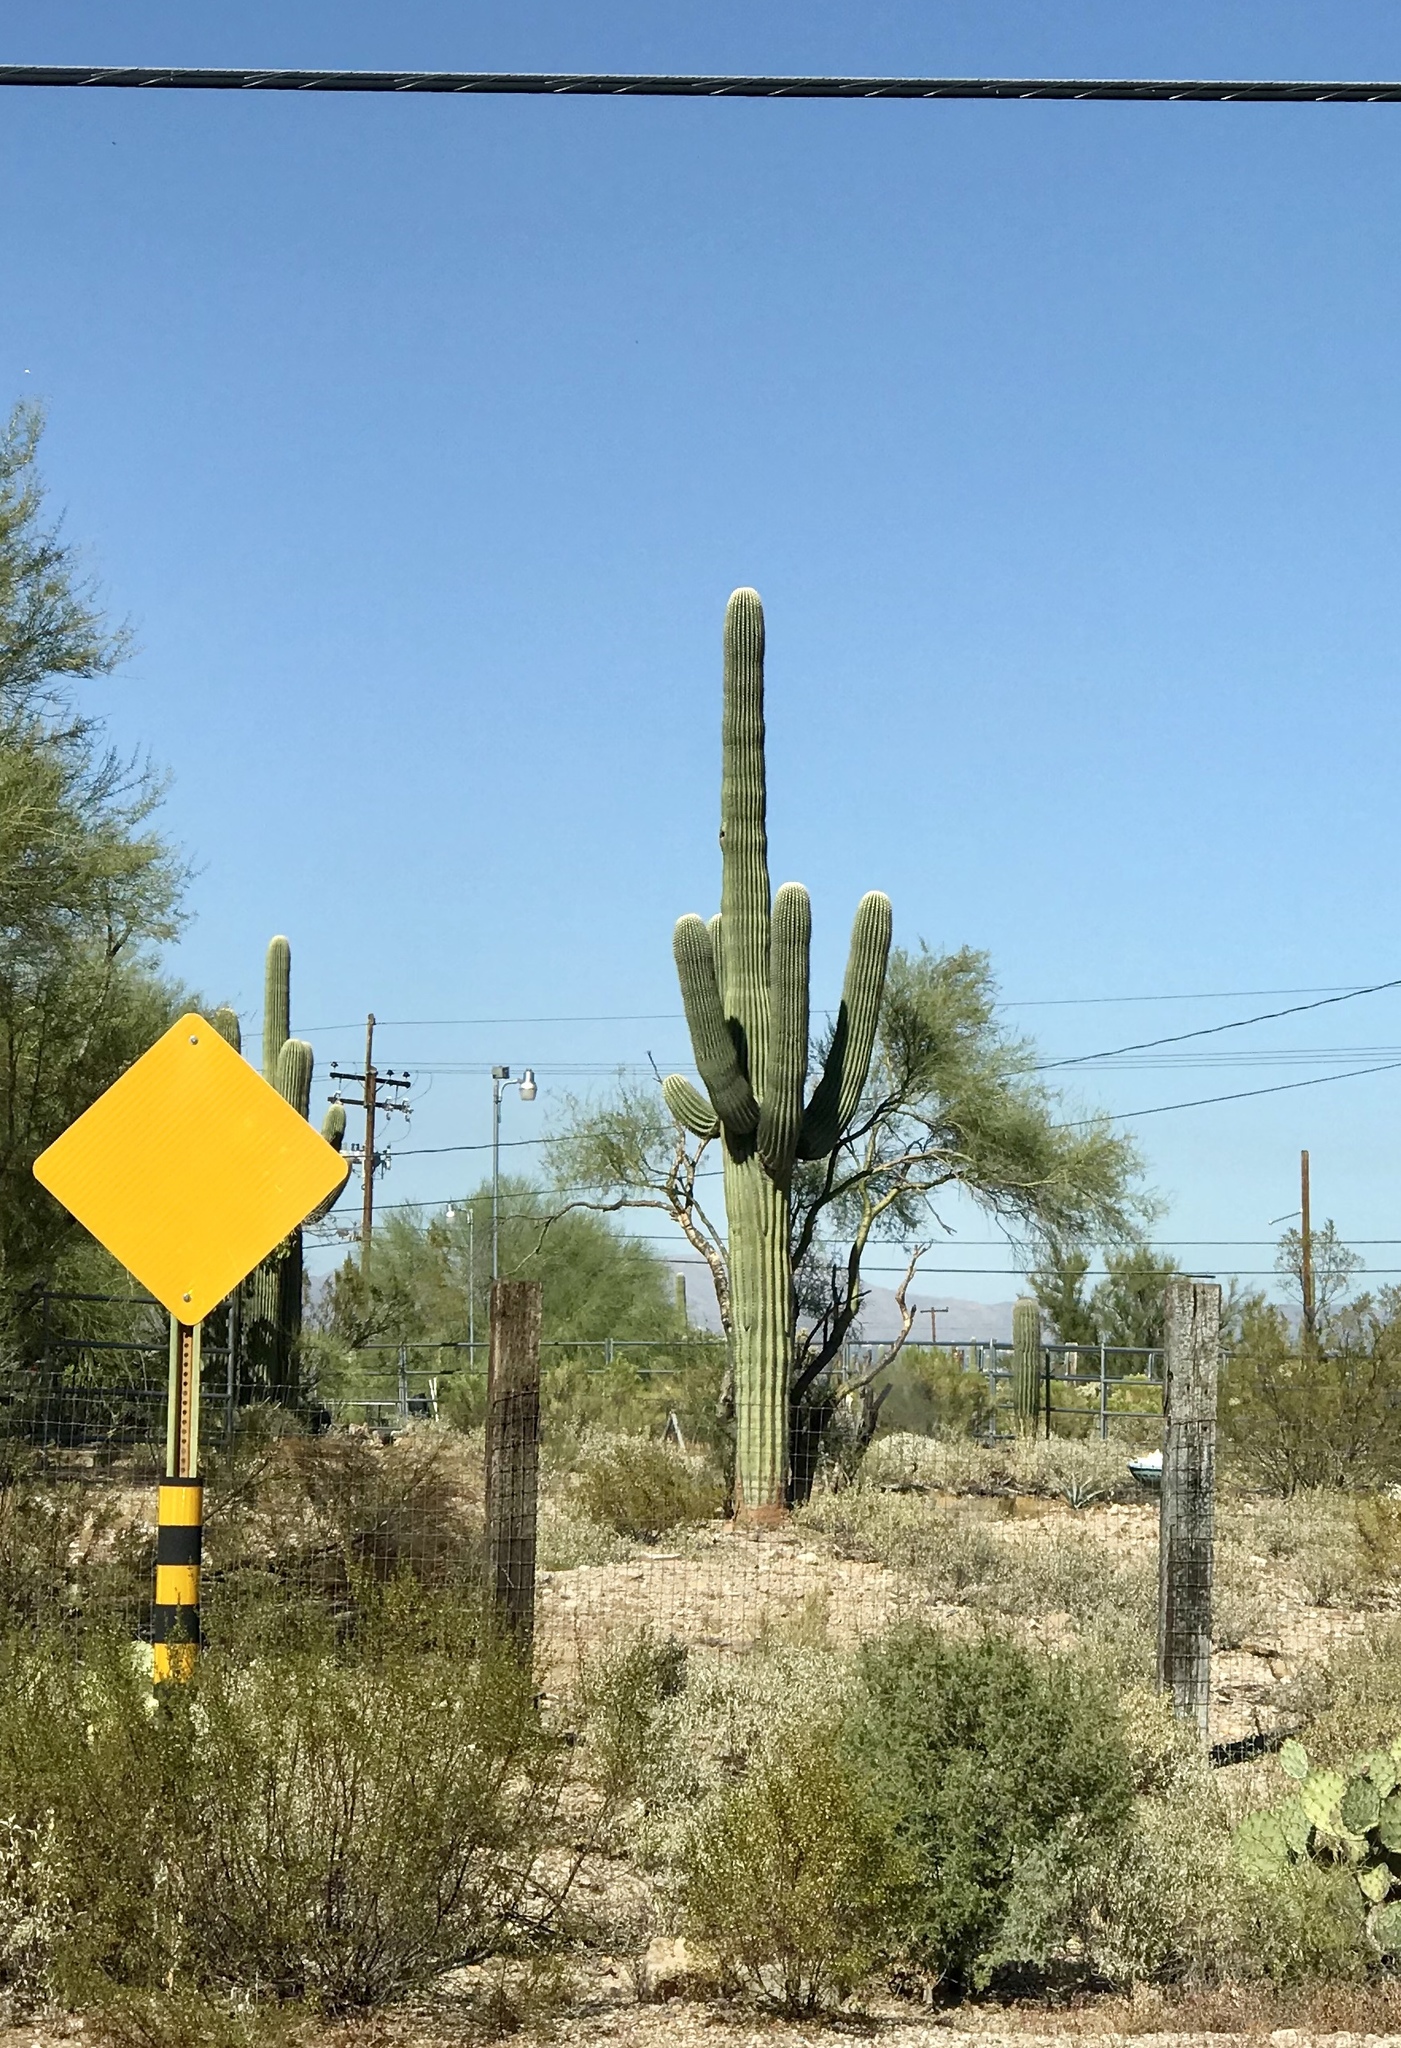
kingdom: Plantae
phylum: Tracheophyta
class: Magnoliopsida
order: Caryophyllales
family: Cactaceae
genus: Carnegiea
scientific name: Carnegiea gigantea
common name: Saguaro
